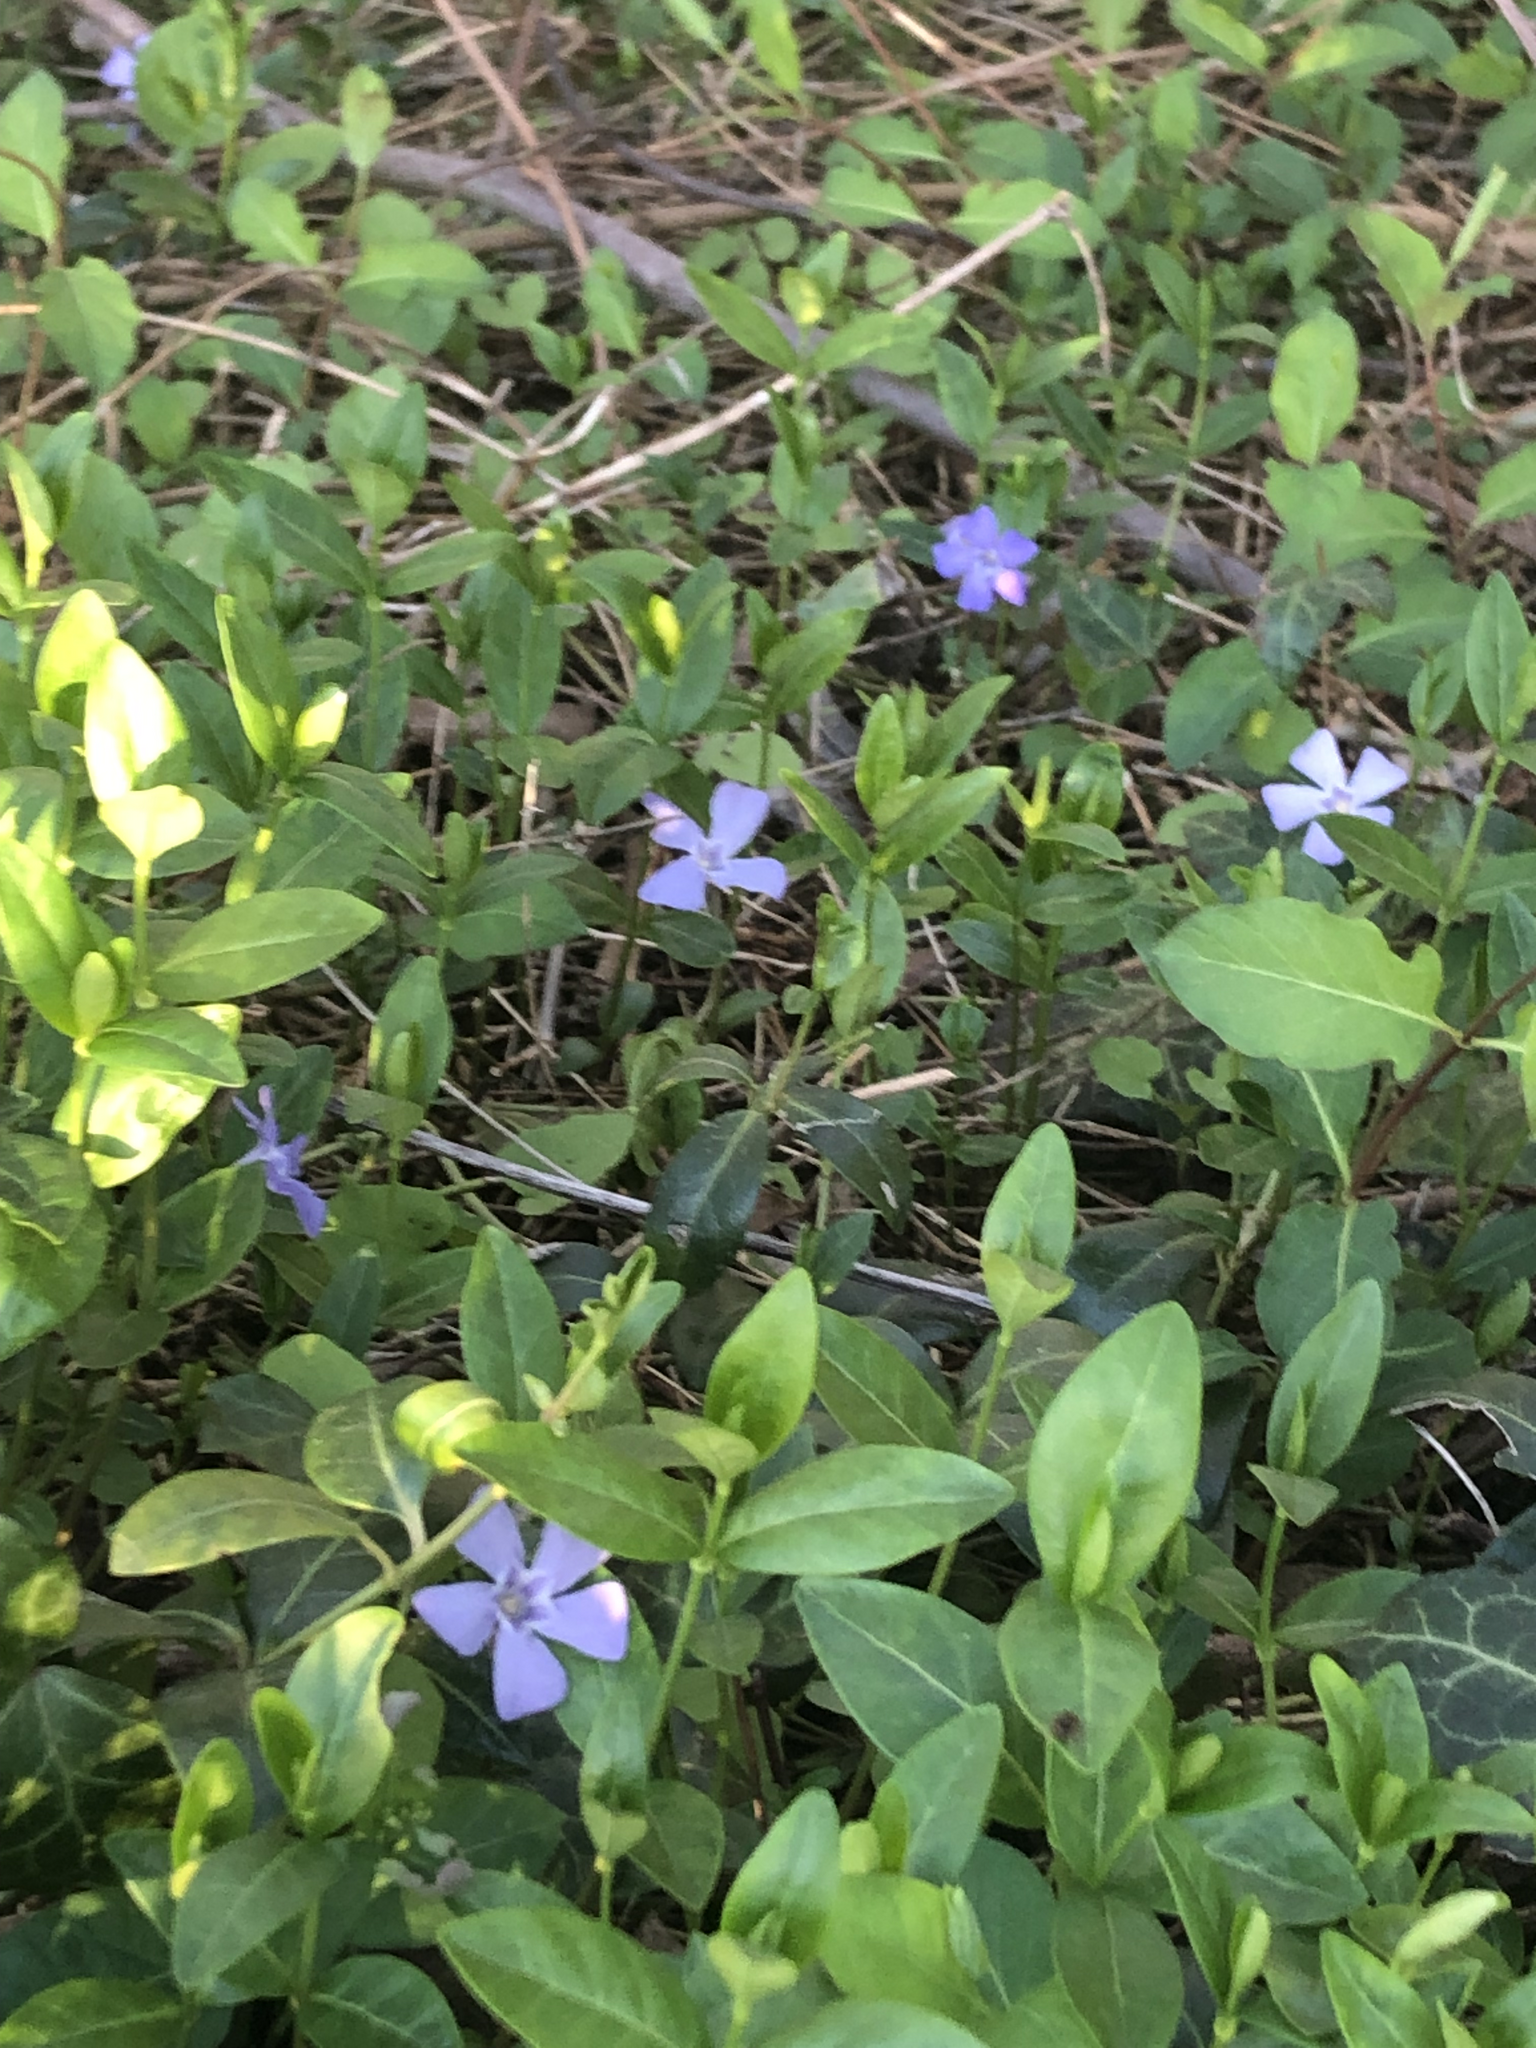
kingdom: Plantae
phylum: Tracheophyta
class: Magnoliopsida
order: Gentianales
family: Apocynaceae
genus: Vinca
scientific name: Vinca minor
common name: Lesser periwinkle
